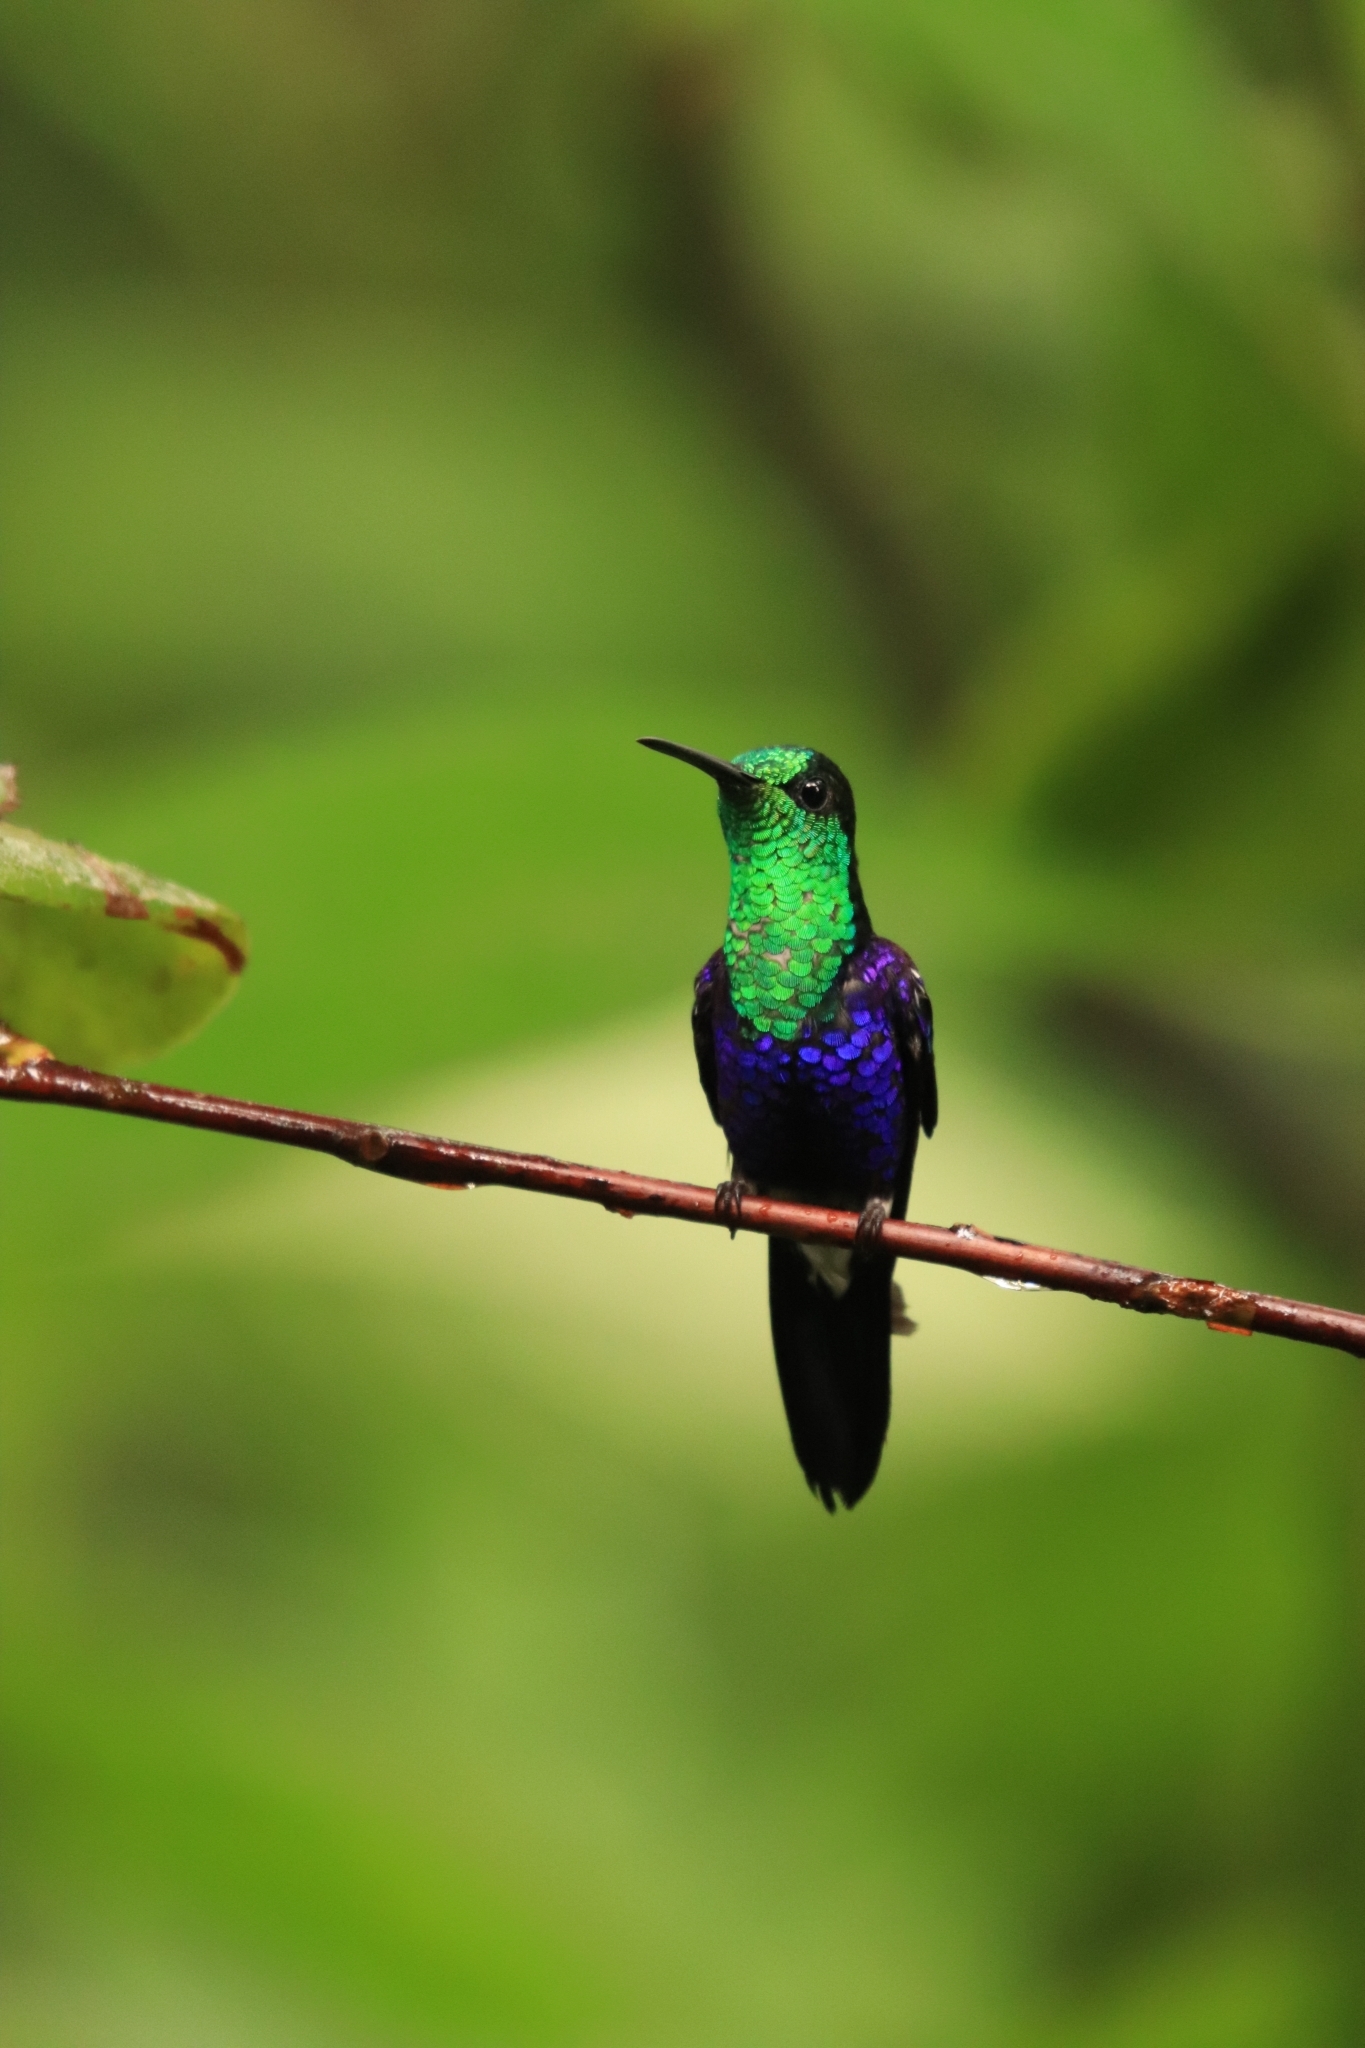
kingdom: Animalia
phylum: Chordata
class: Aves
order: Apodiformes
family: Trochilidae
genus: Thalurania
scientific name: Thalurania colombica
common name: Crowned woodnymph
